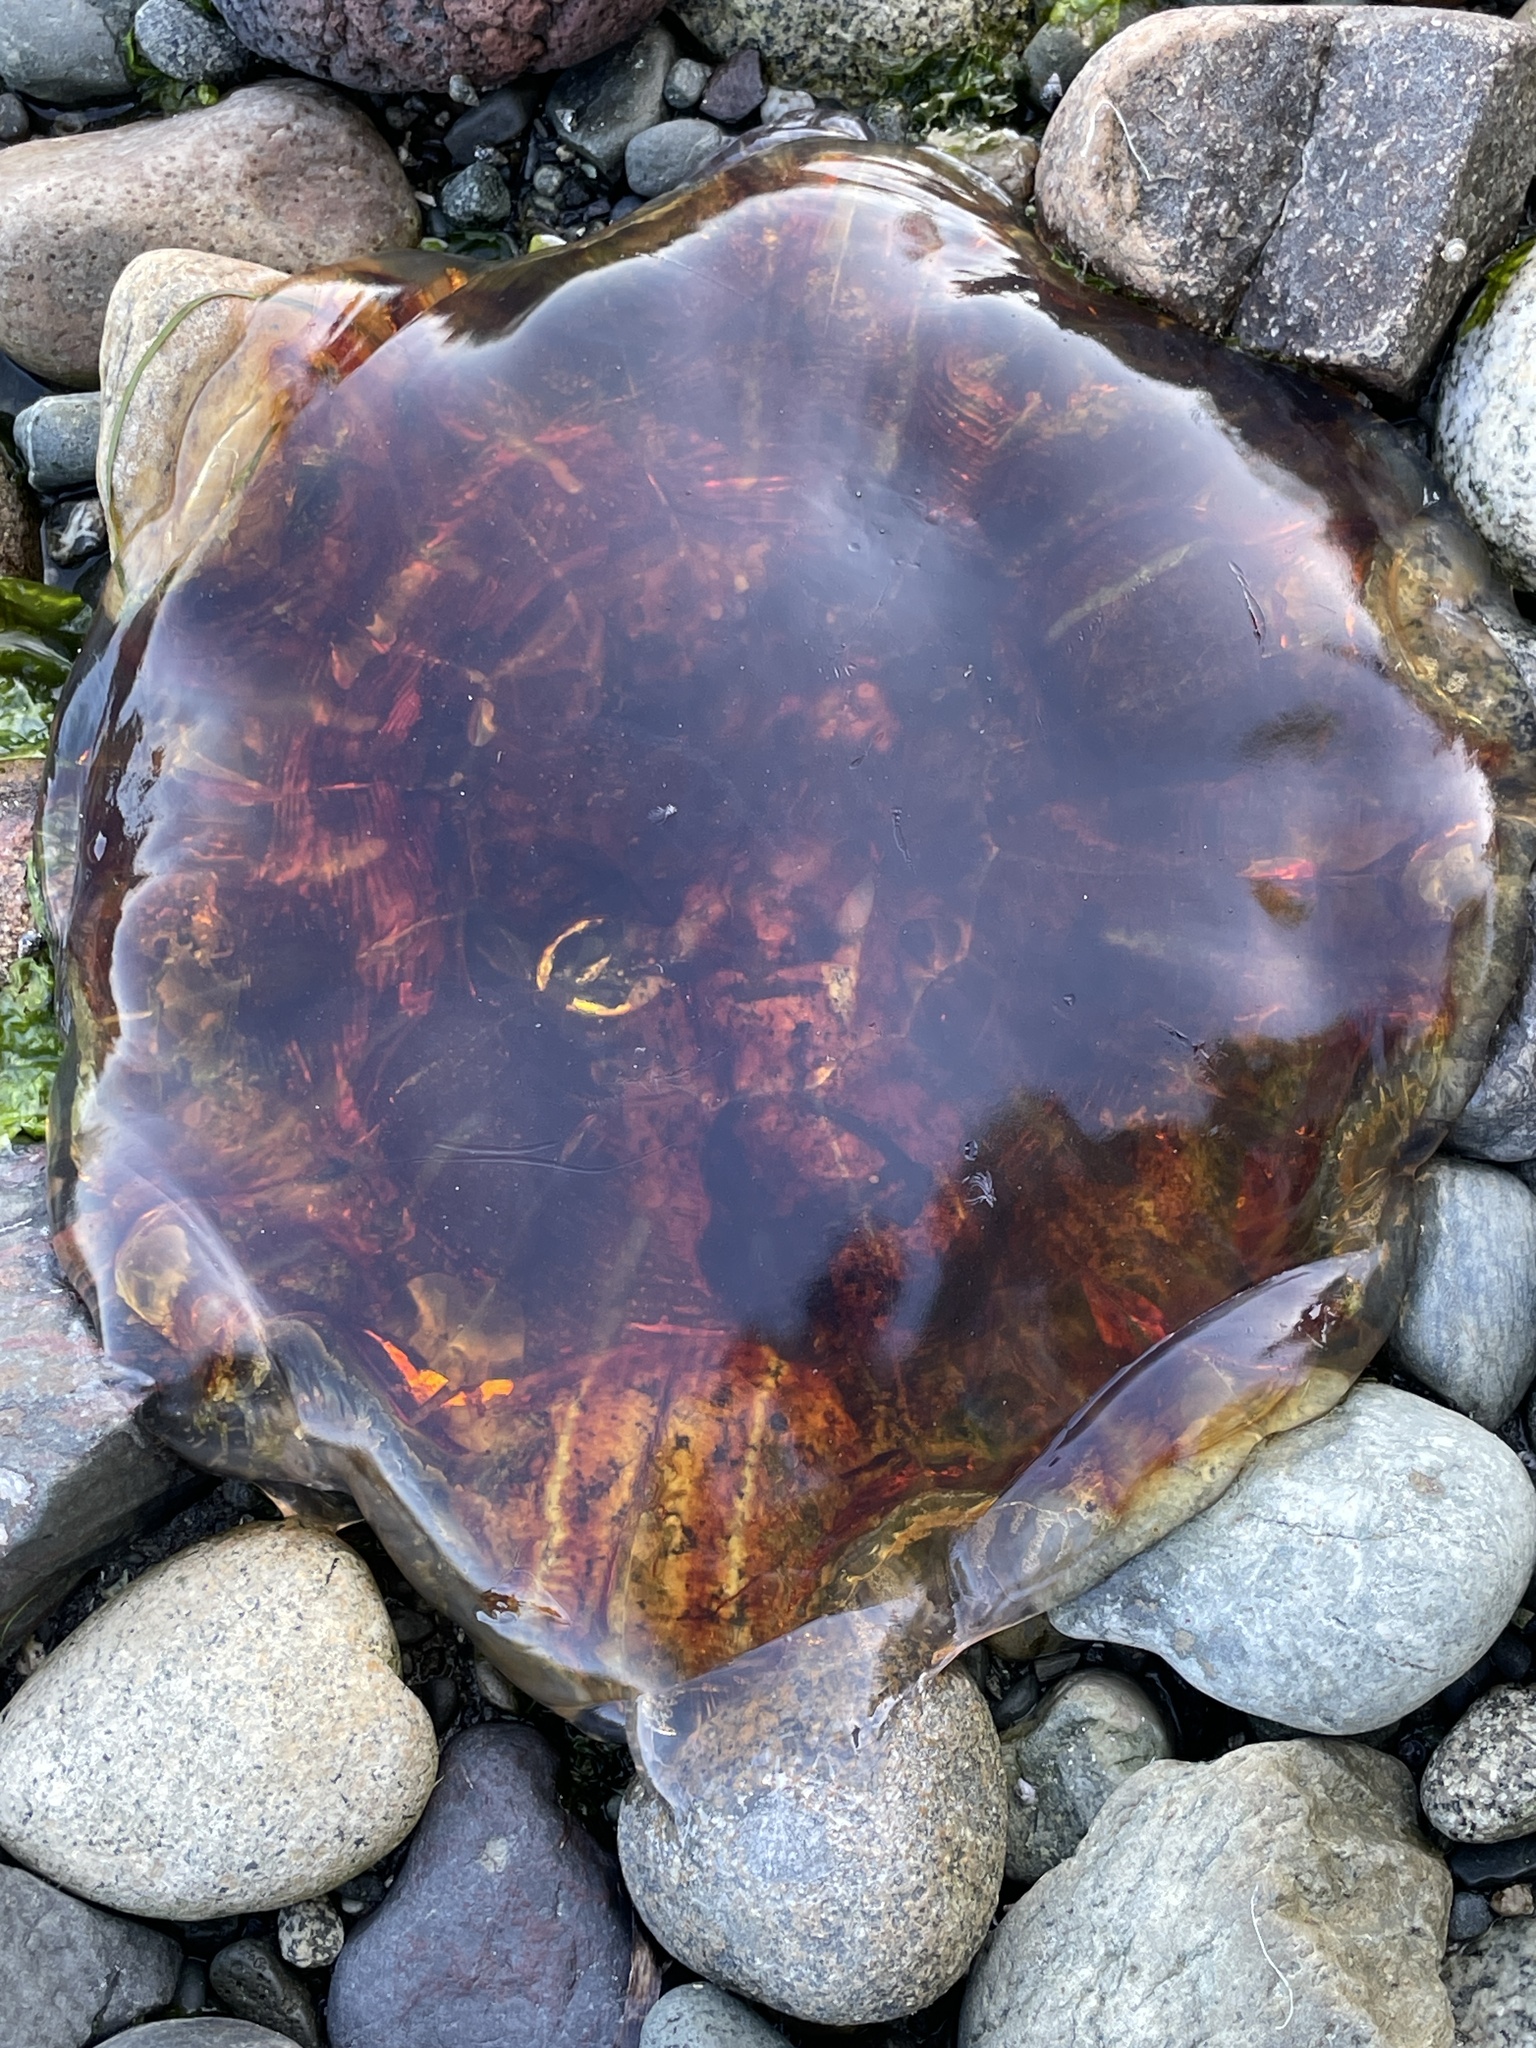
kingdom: Animalia
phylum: Cnidaria
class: Scyphozoa
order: Semaeostomeae
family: Cyaneidae
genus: Cyanea
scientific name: Cyanea ferruginea
